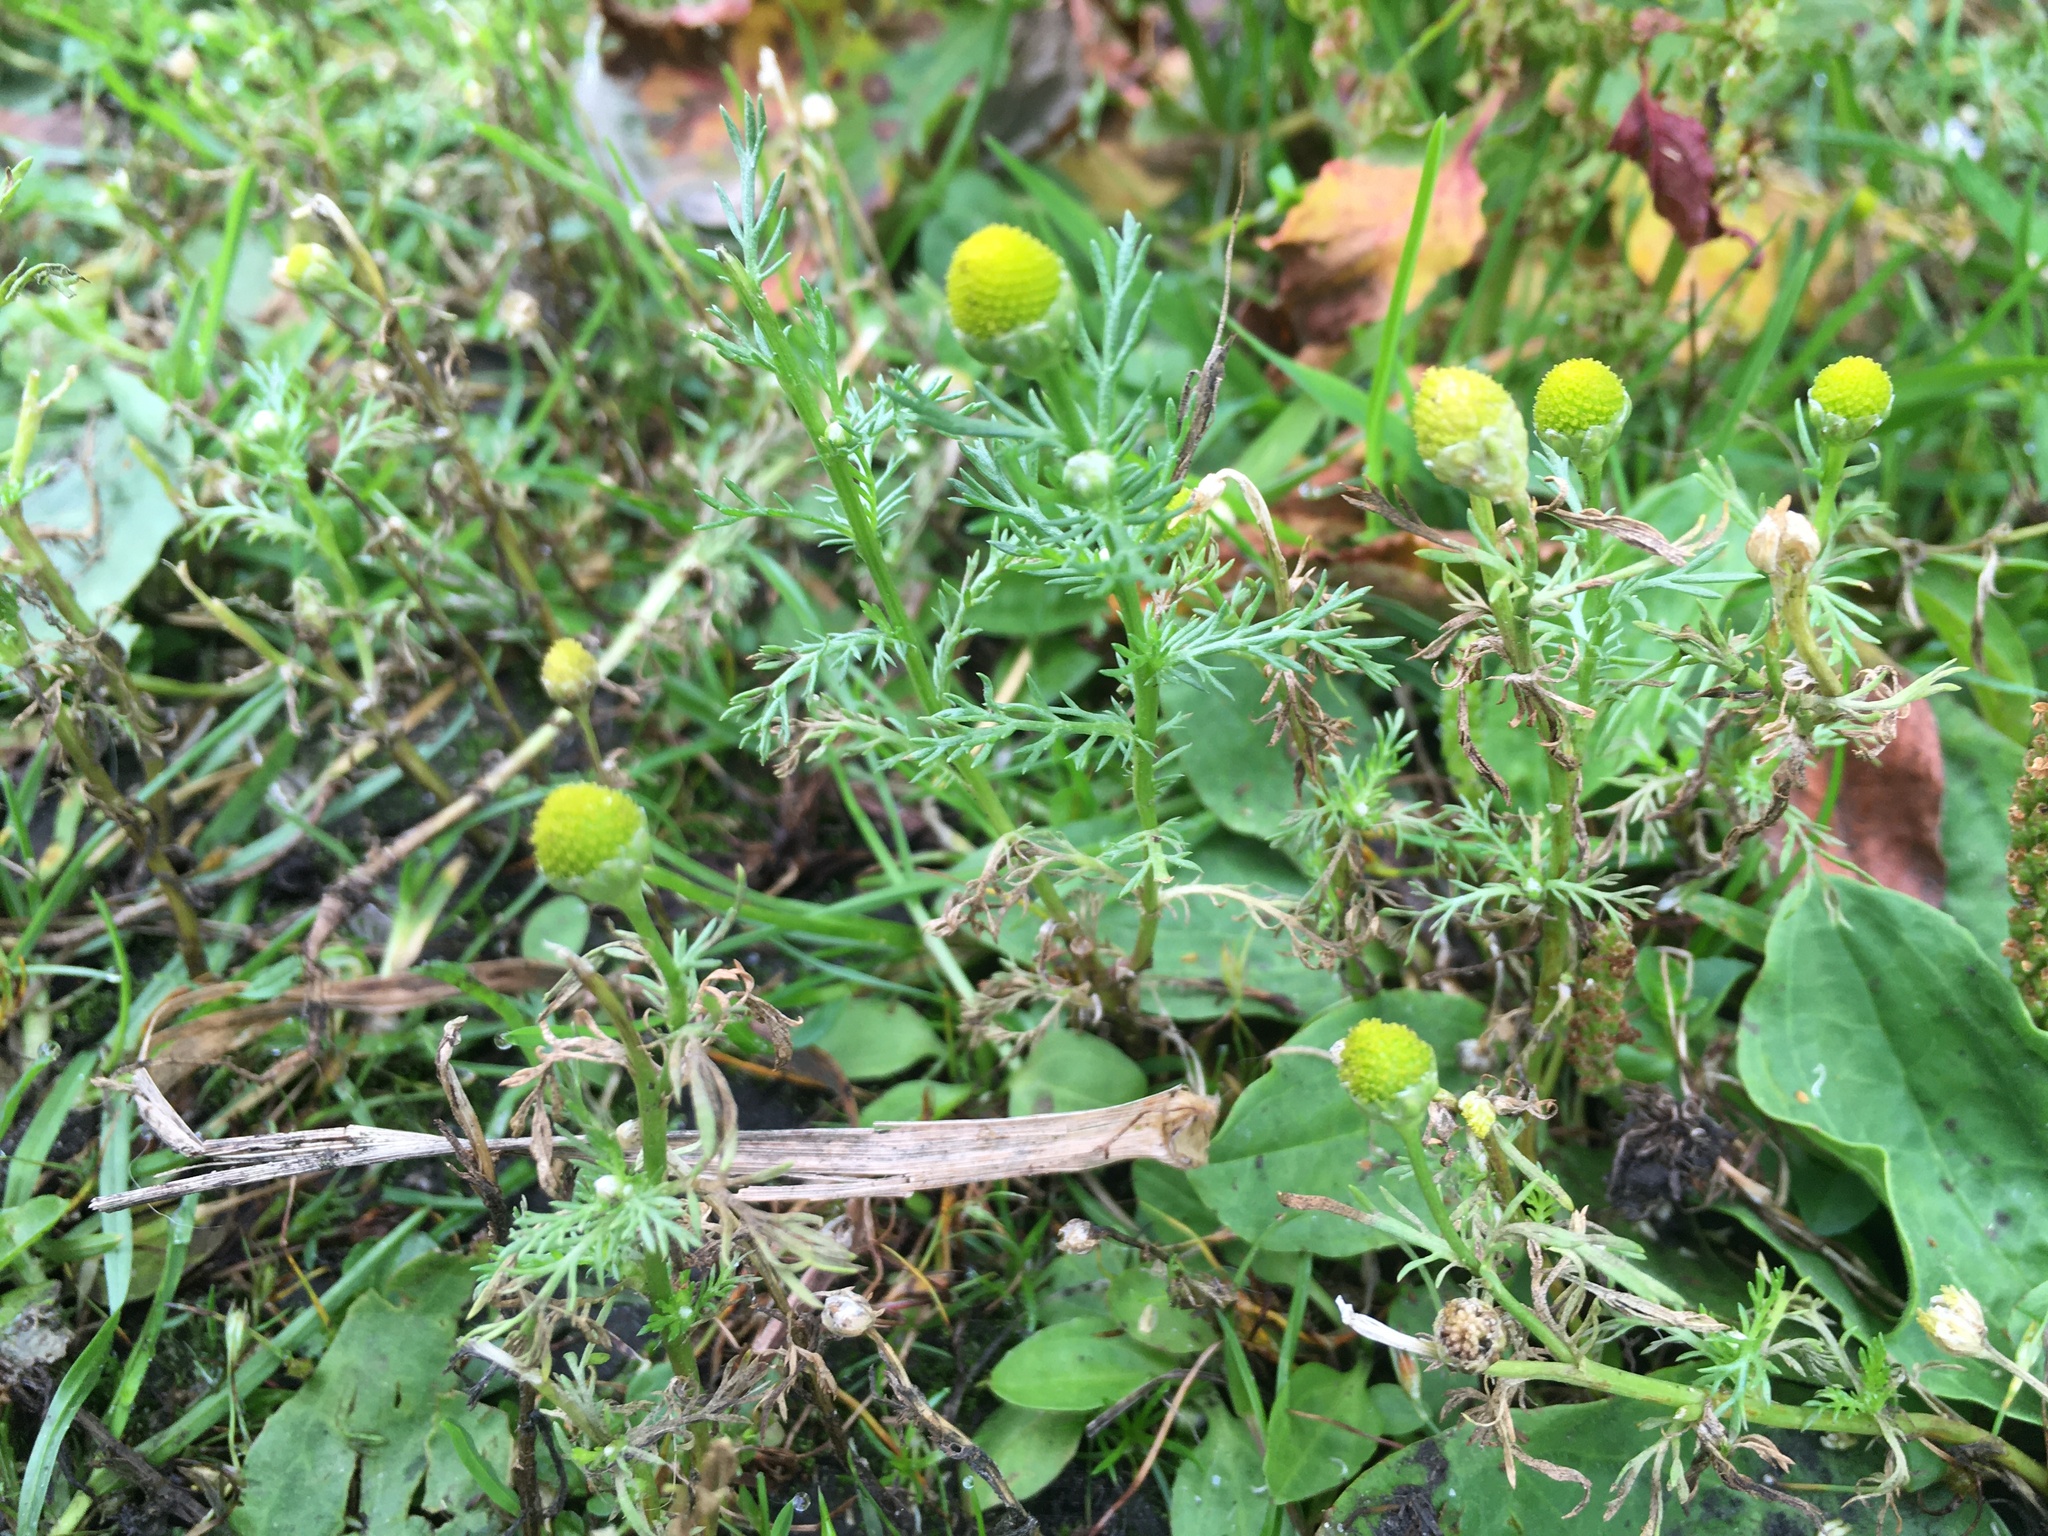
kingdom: Plantae
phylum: Tracheophyta
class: Magnoliopsida
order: Asterales
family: Asteraceae
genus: Matricaria
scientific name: Matricaria discoidea
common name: Disc mayweed
